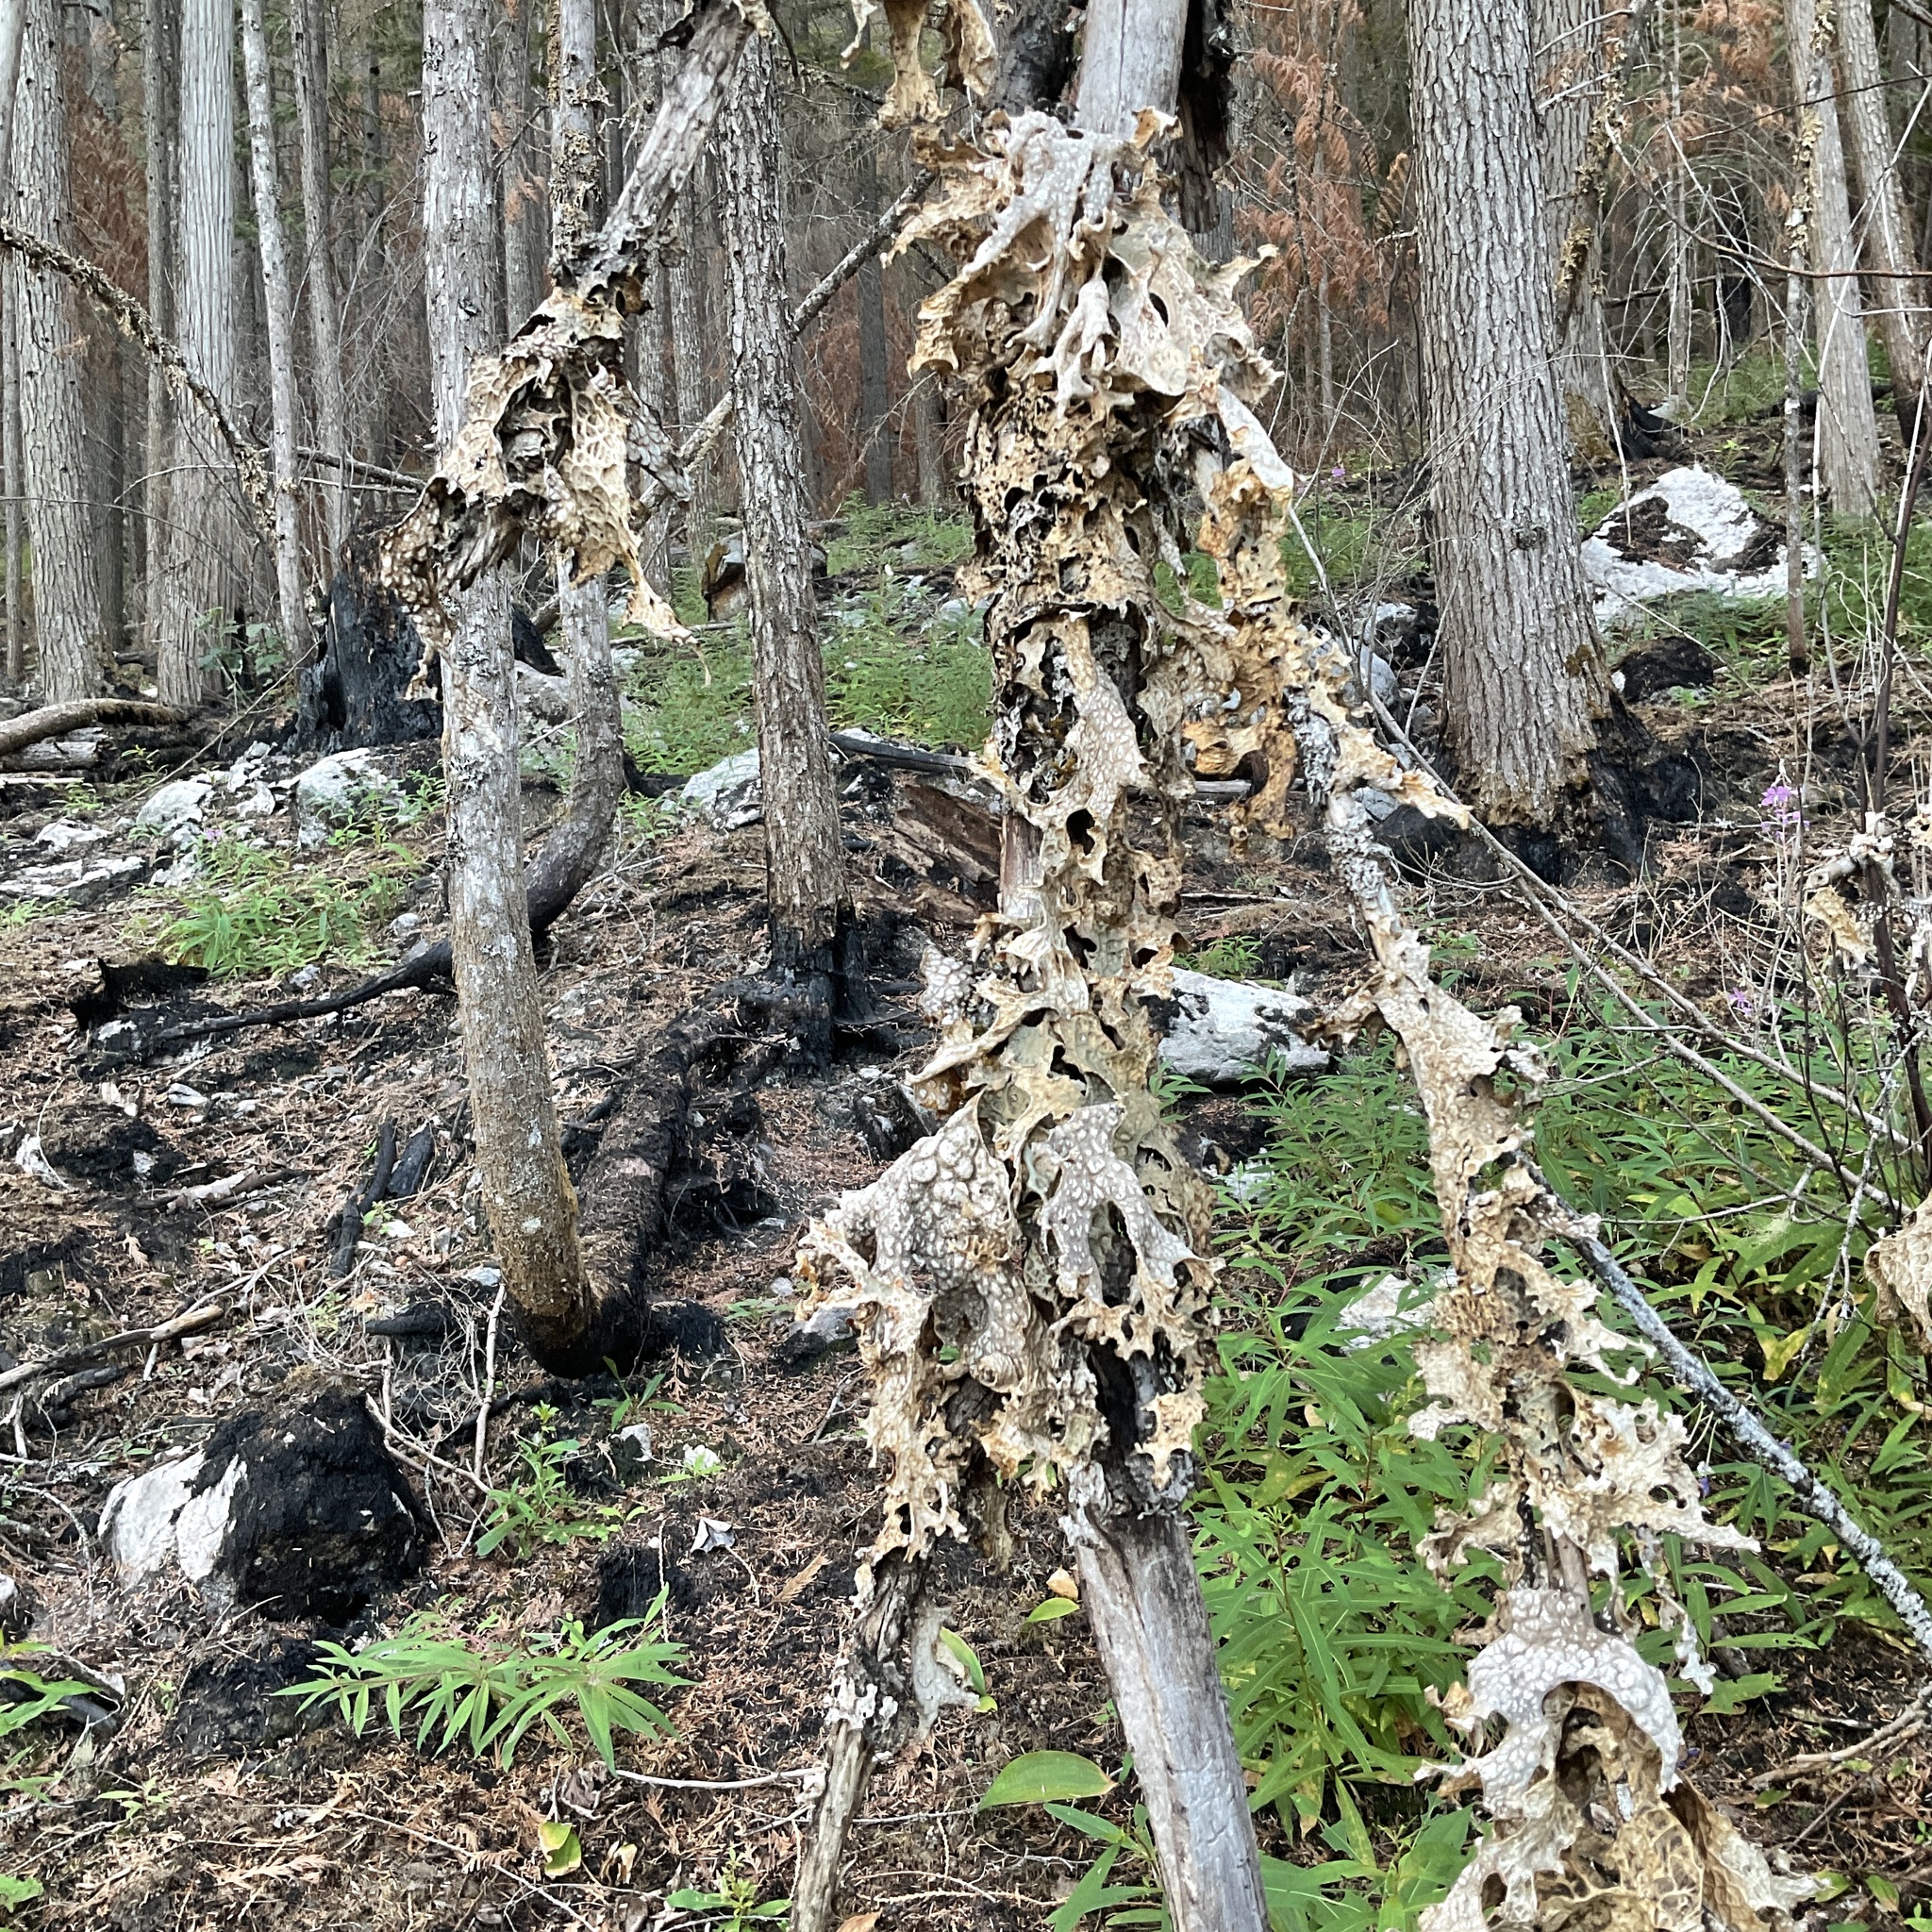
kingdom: Fungi
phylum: Ascomycota
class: Lecanoromycetes
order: Peltigerales
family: Lobariaceae
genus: Lobaria
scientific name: Lobaria pulmonaria
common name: Lungwort
